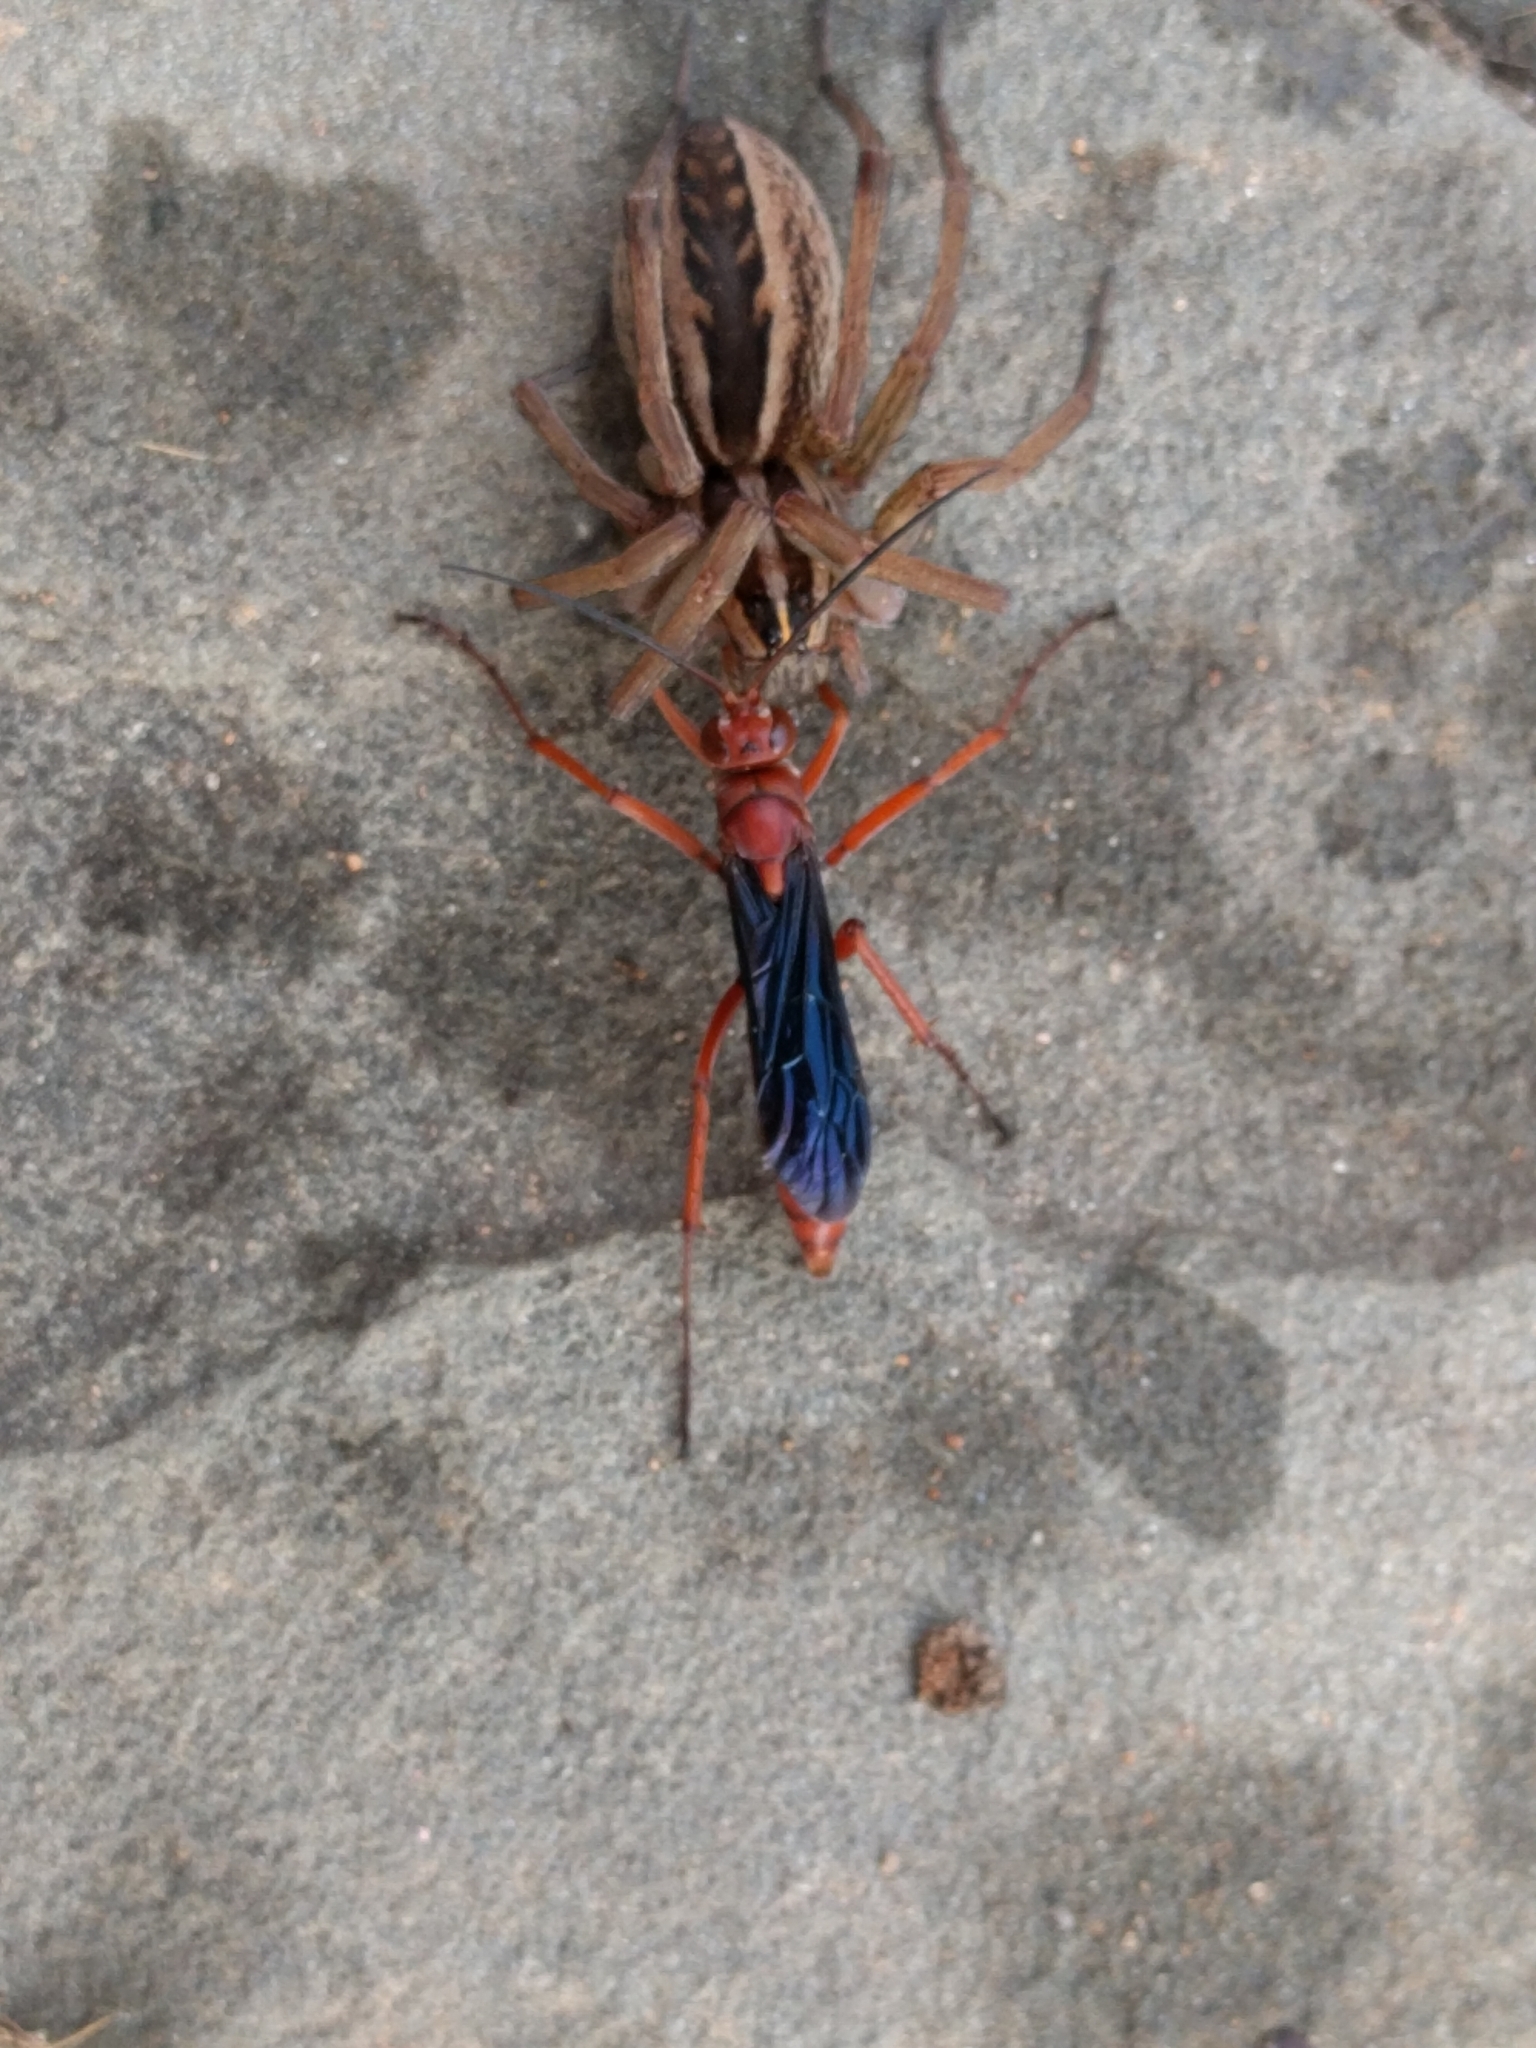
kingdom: Animalia
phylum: Arthropoda
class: Insecta
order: Hymenoptera
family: Pompilidae
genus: Tachypompilus
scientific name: Tachypompilus ferrugineus
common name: Rusty spider wasp
